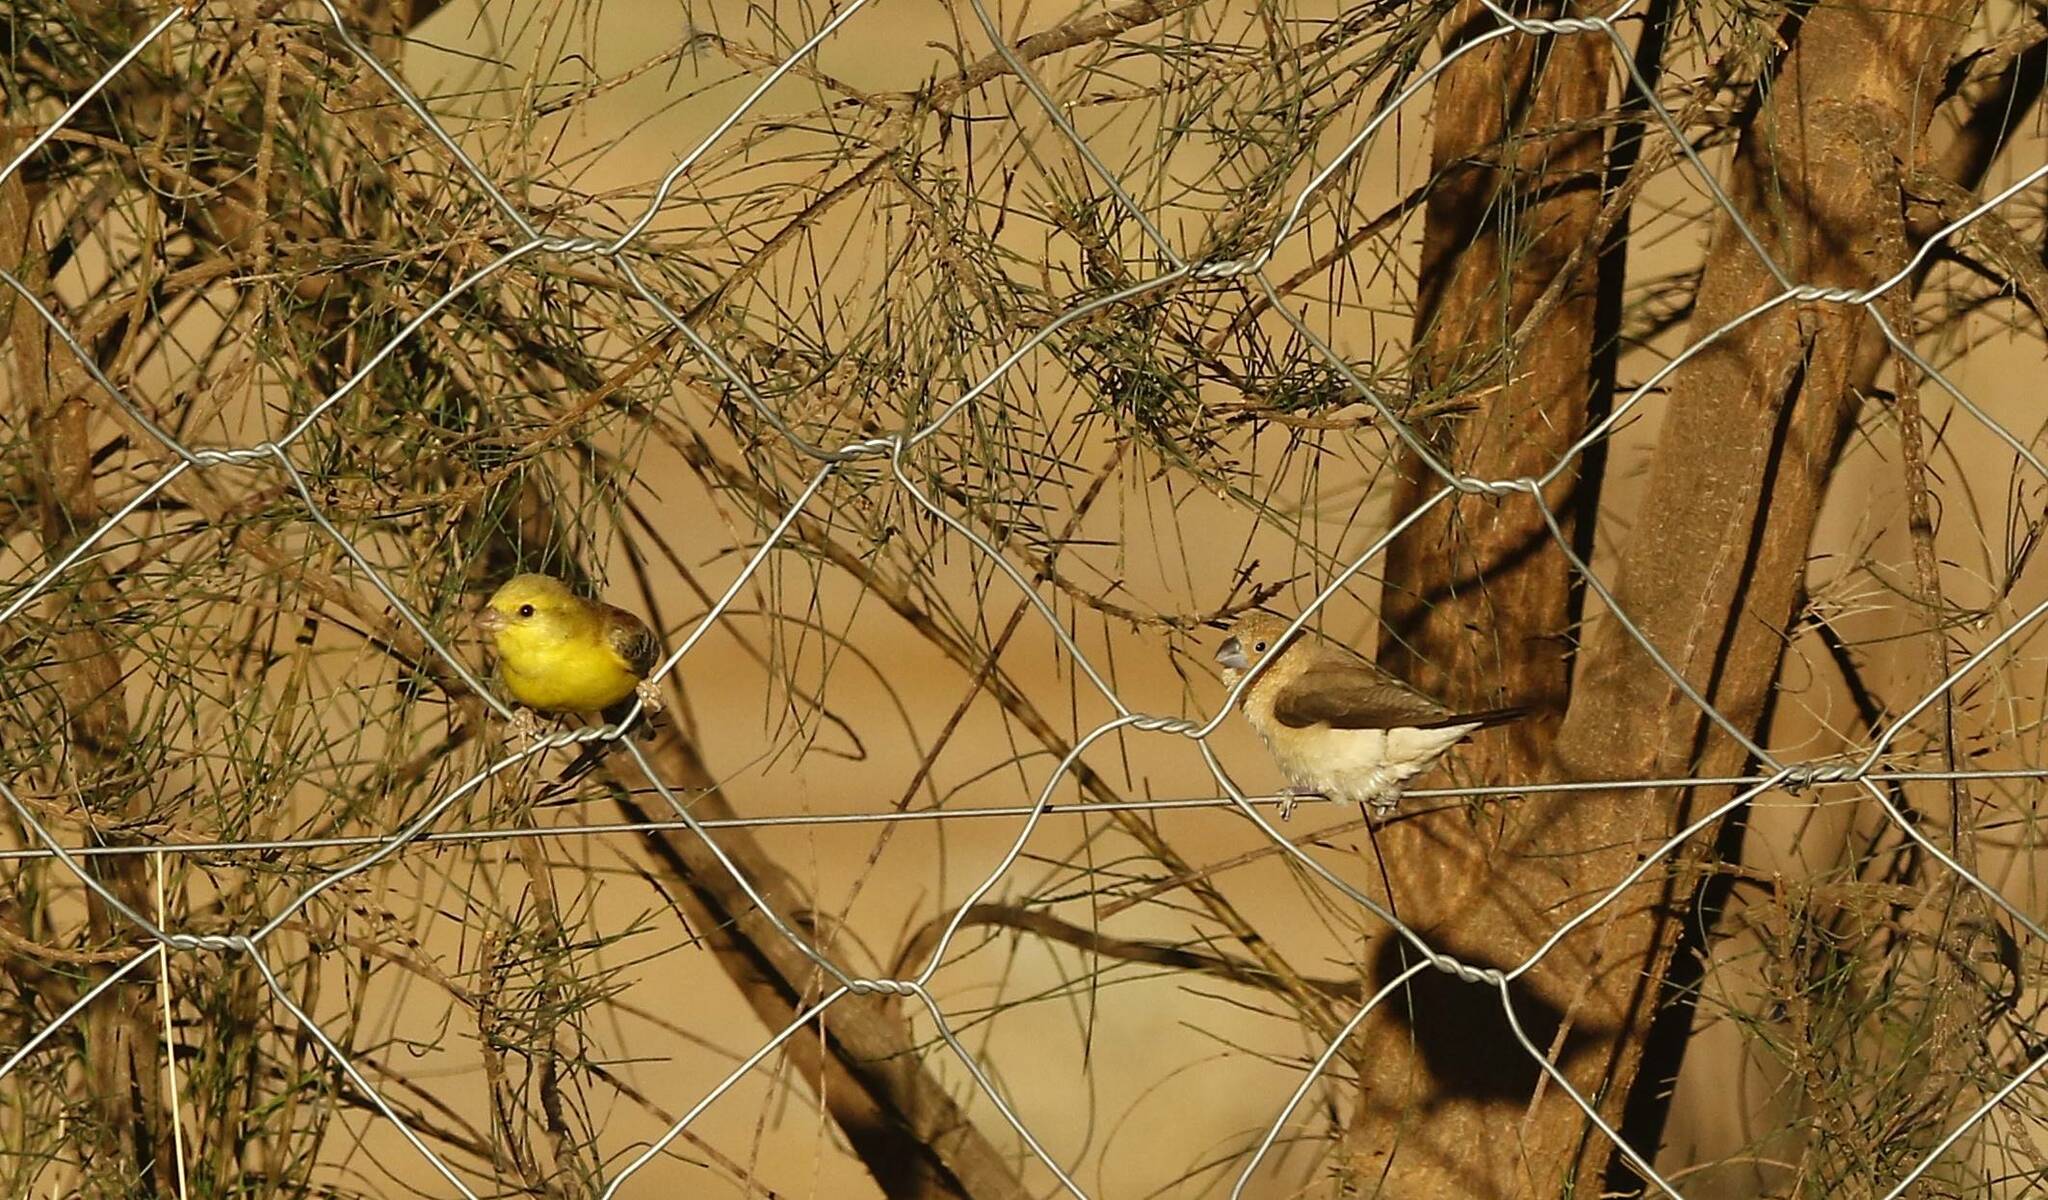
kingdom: Animalia
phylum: Chordata
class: Aves
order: Passeriformes
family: Passeridae
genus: Passer
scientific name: Passer luteus
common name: Sudan golden sparrow
